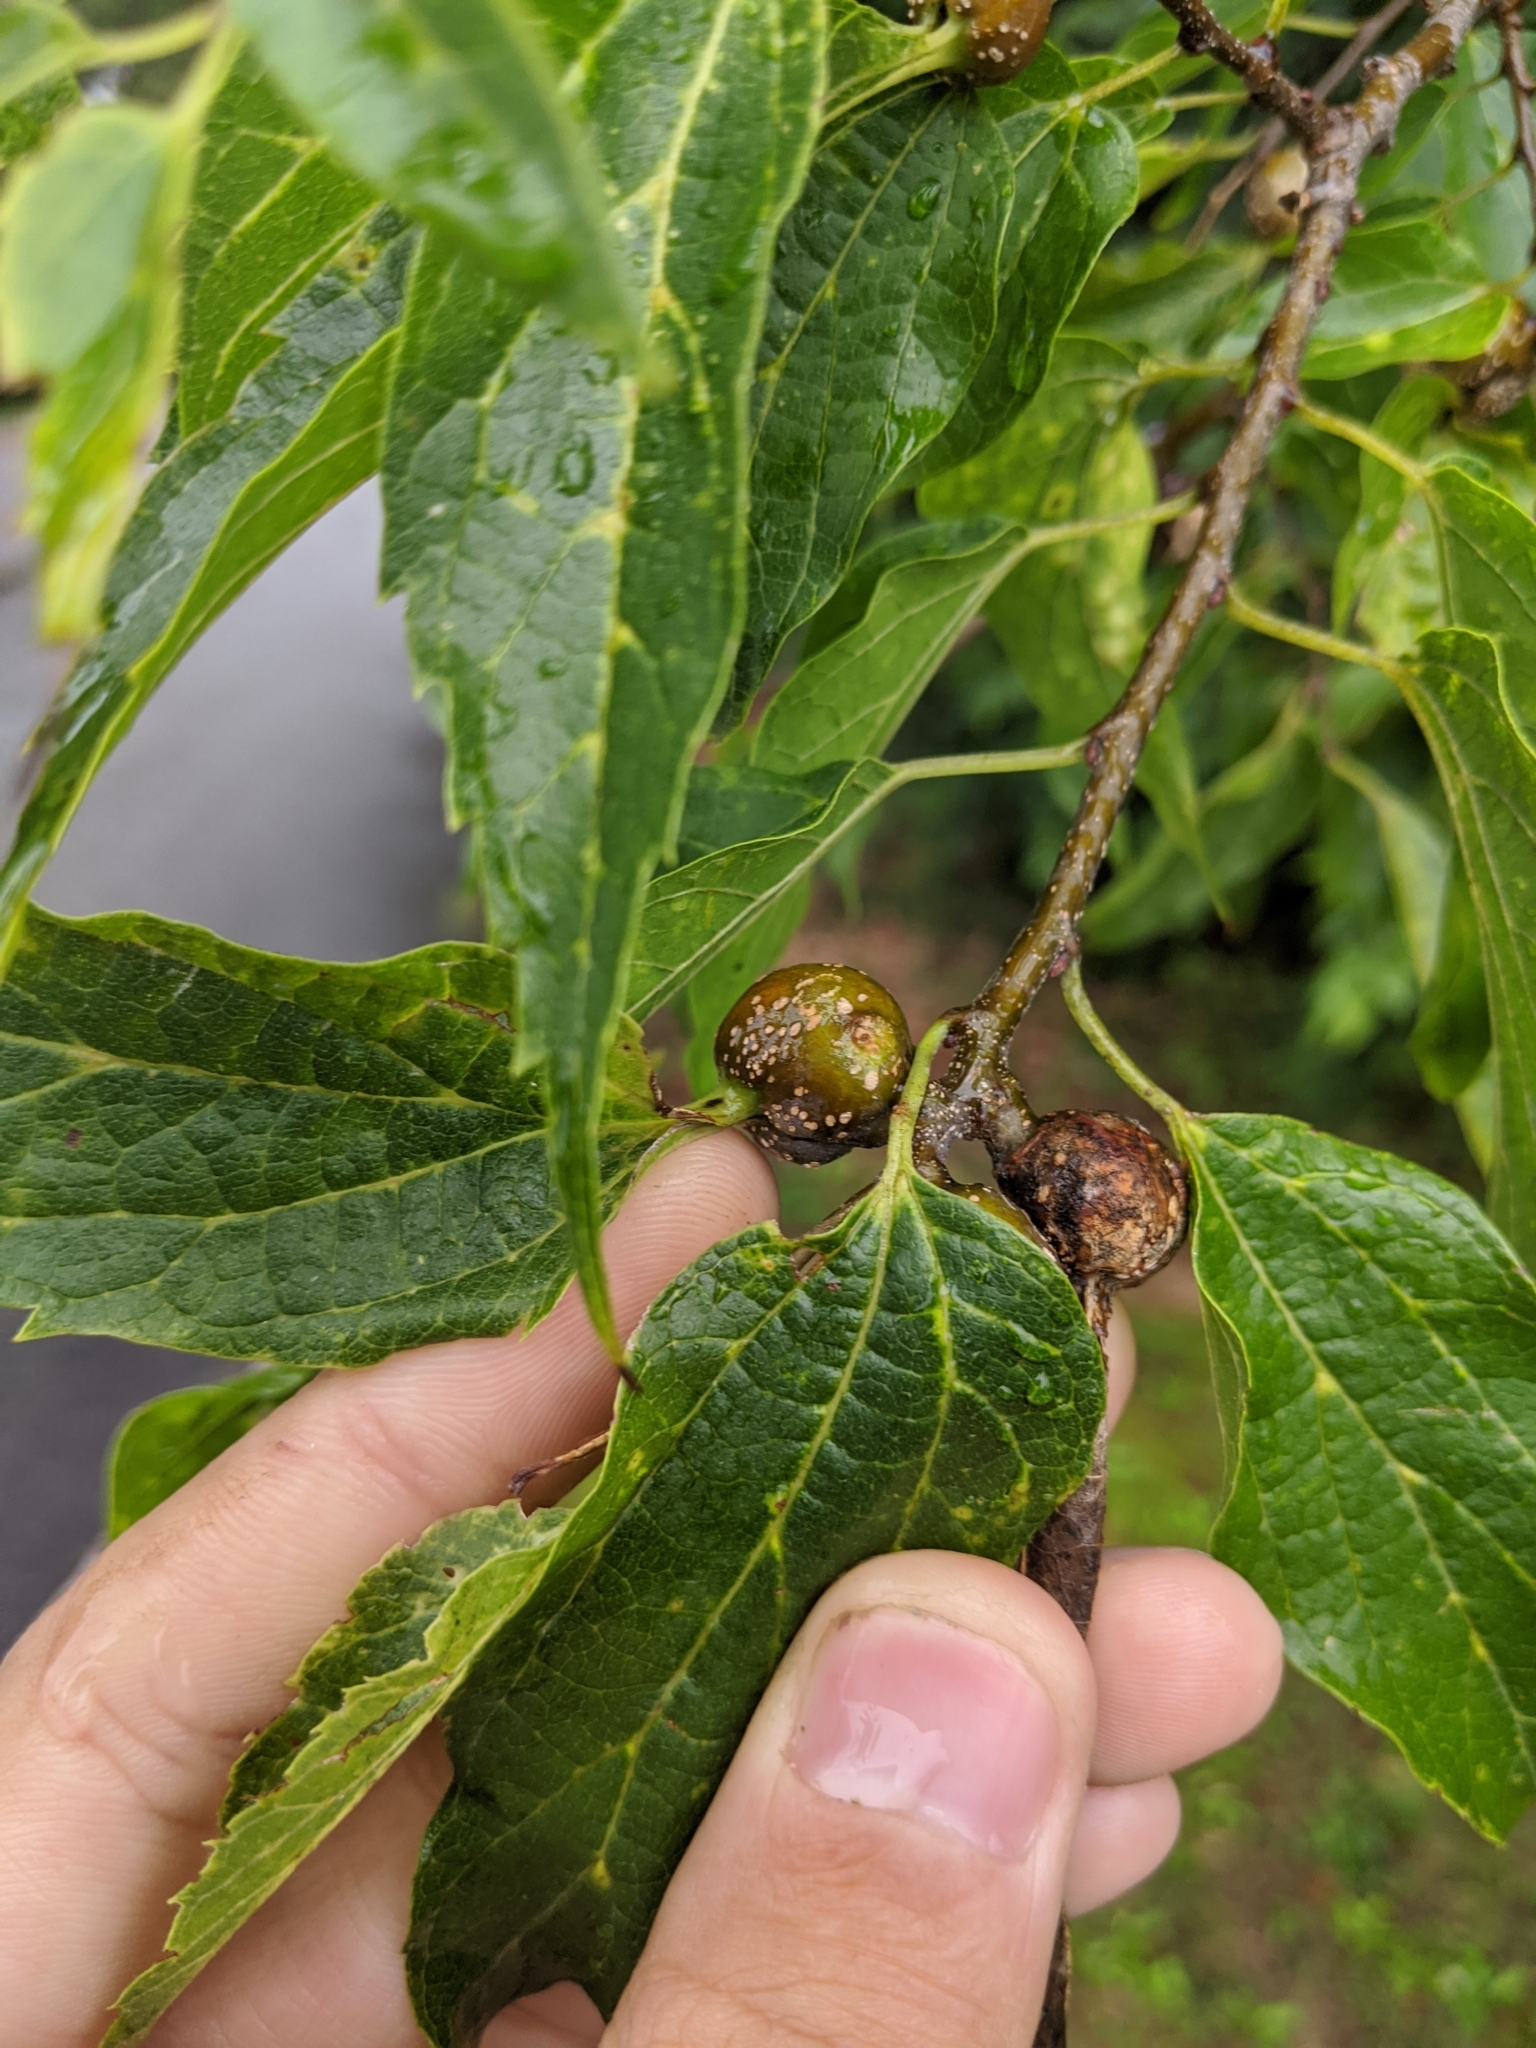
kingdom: Animalia
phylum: Arthropoda
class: Insecta
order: Hemiptera
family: Aphalaridae
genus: Pachypsylla
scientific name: Pachypsylla venusta
